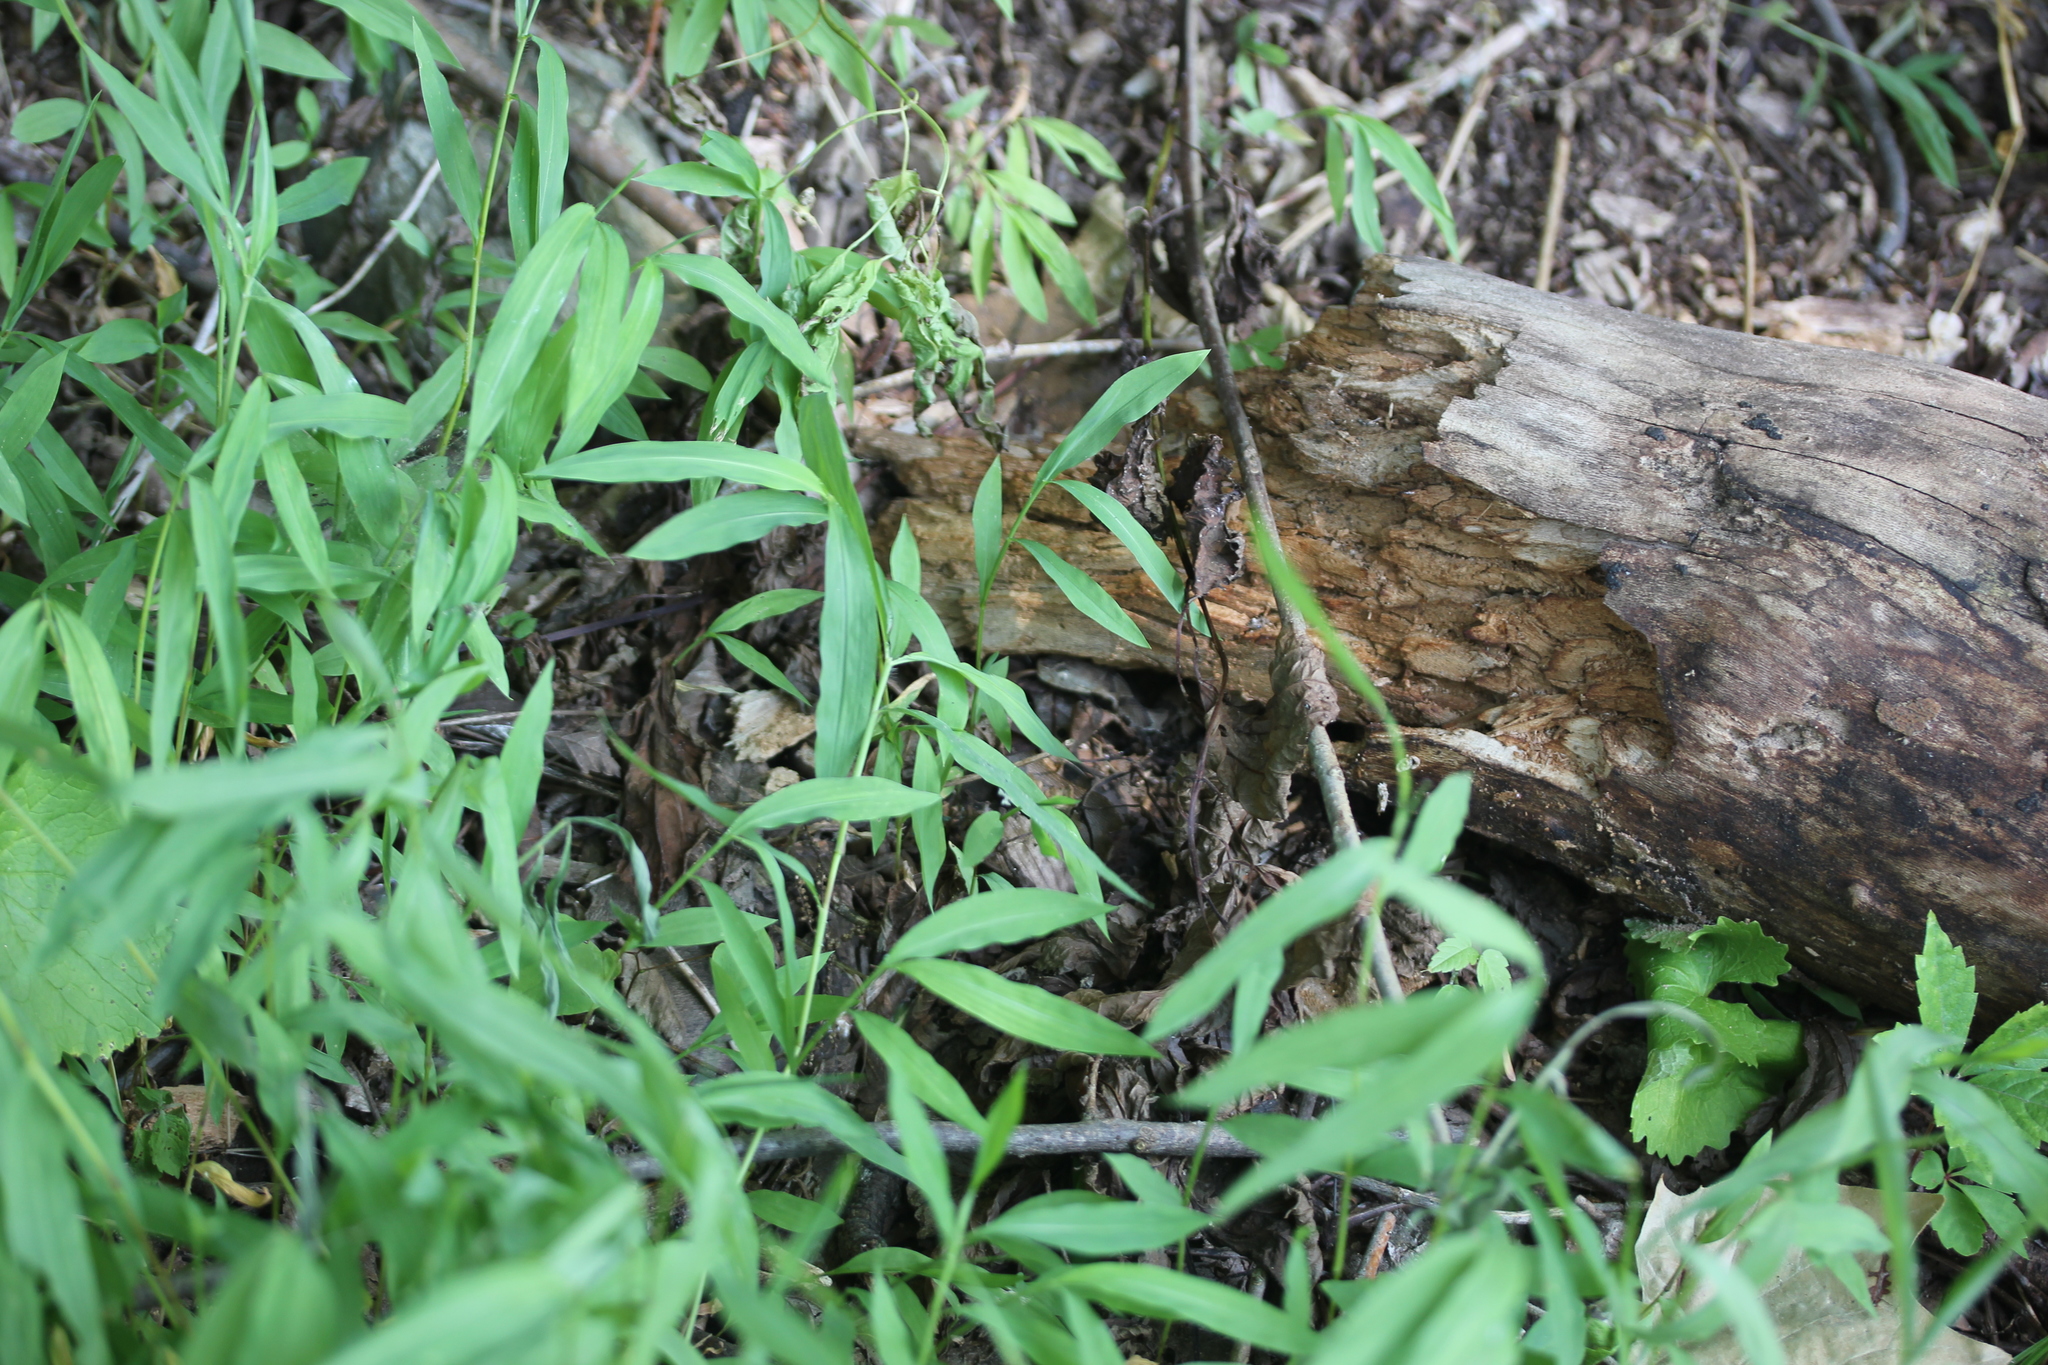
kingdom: Plantae
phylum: Tracheophyta
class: Liliopsida
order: Poales
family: Poaceae
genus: Microstegium
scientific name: Microstegium vimineum
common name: Japanese stiltgrass
